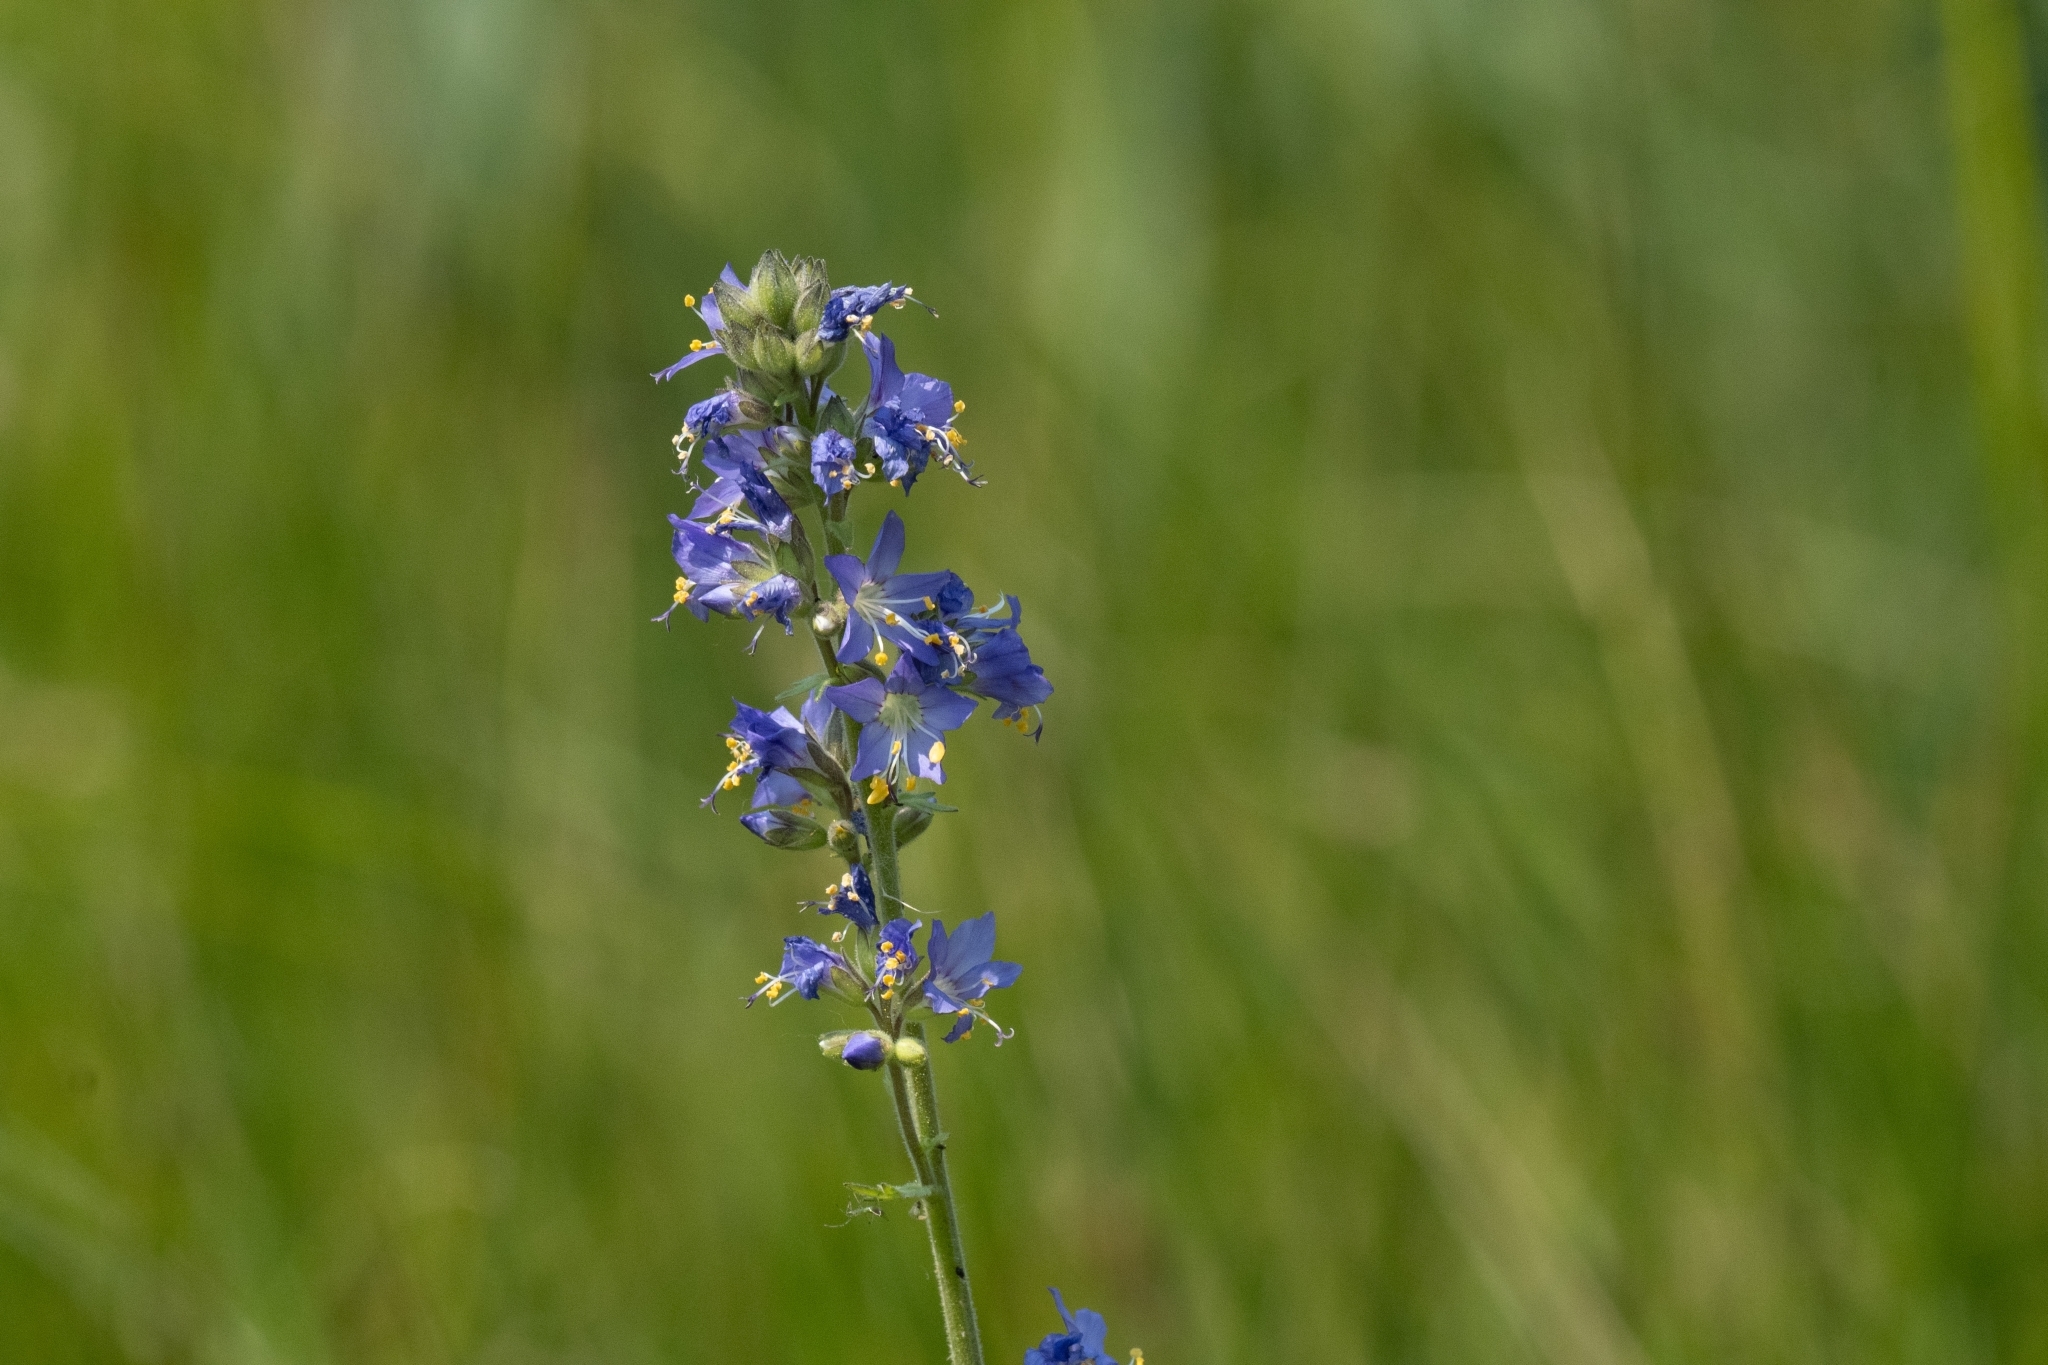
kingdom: Plantae
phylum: Tracheophyta
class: Magnoliopsida
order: Ericales
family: Polemoniaceae
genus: Polemonium
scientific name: Polemonium occidentale
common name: Western jacob's-ladder
